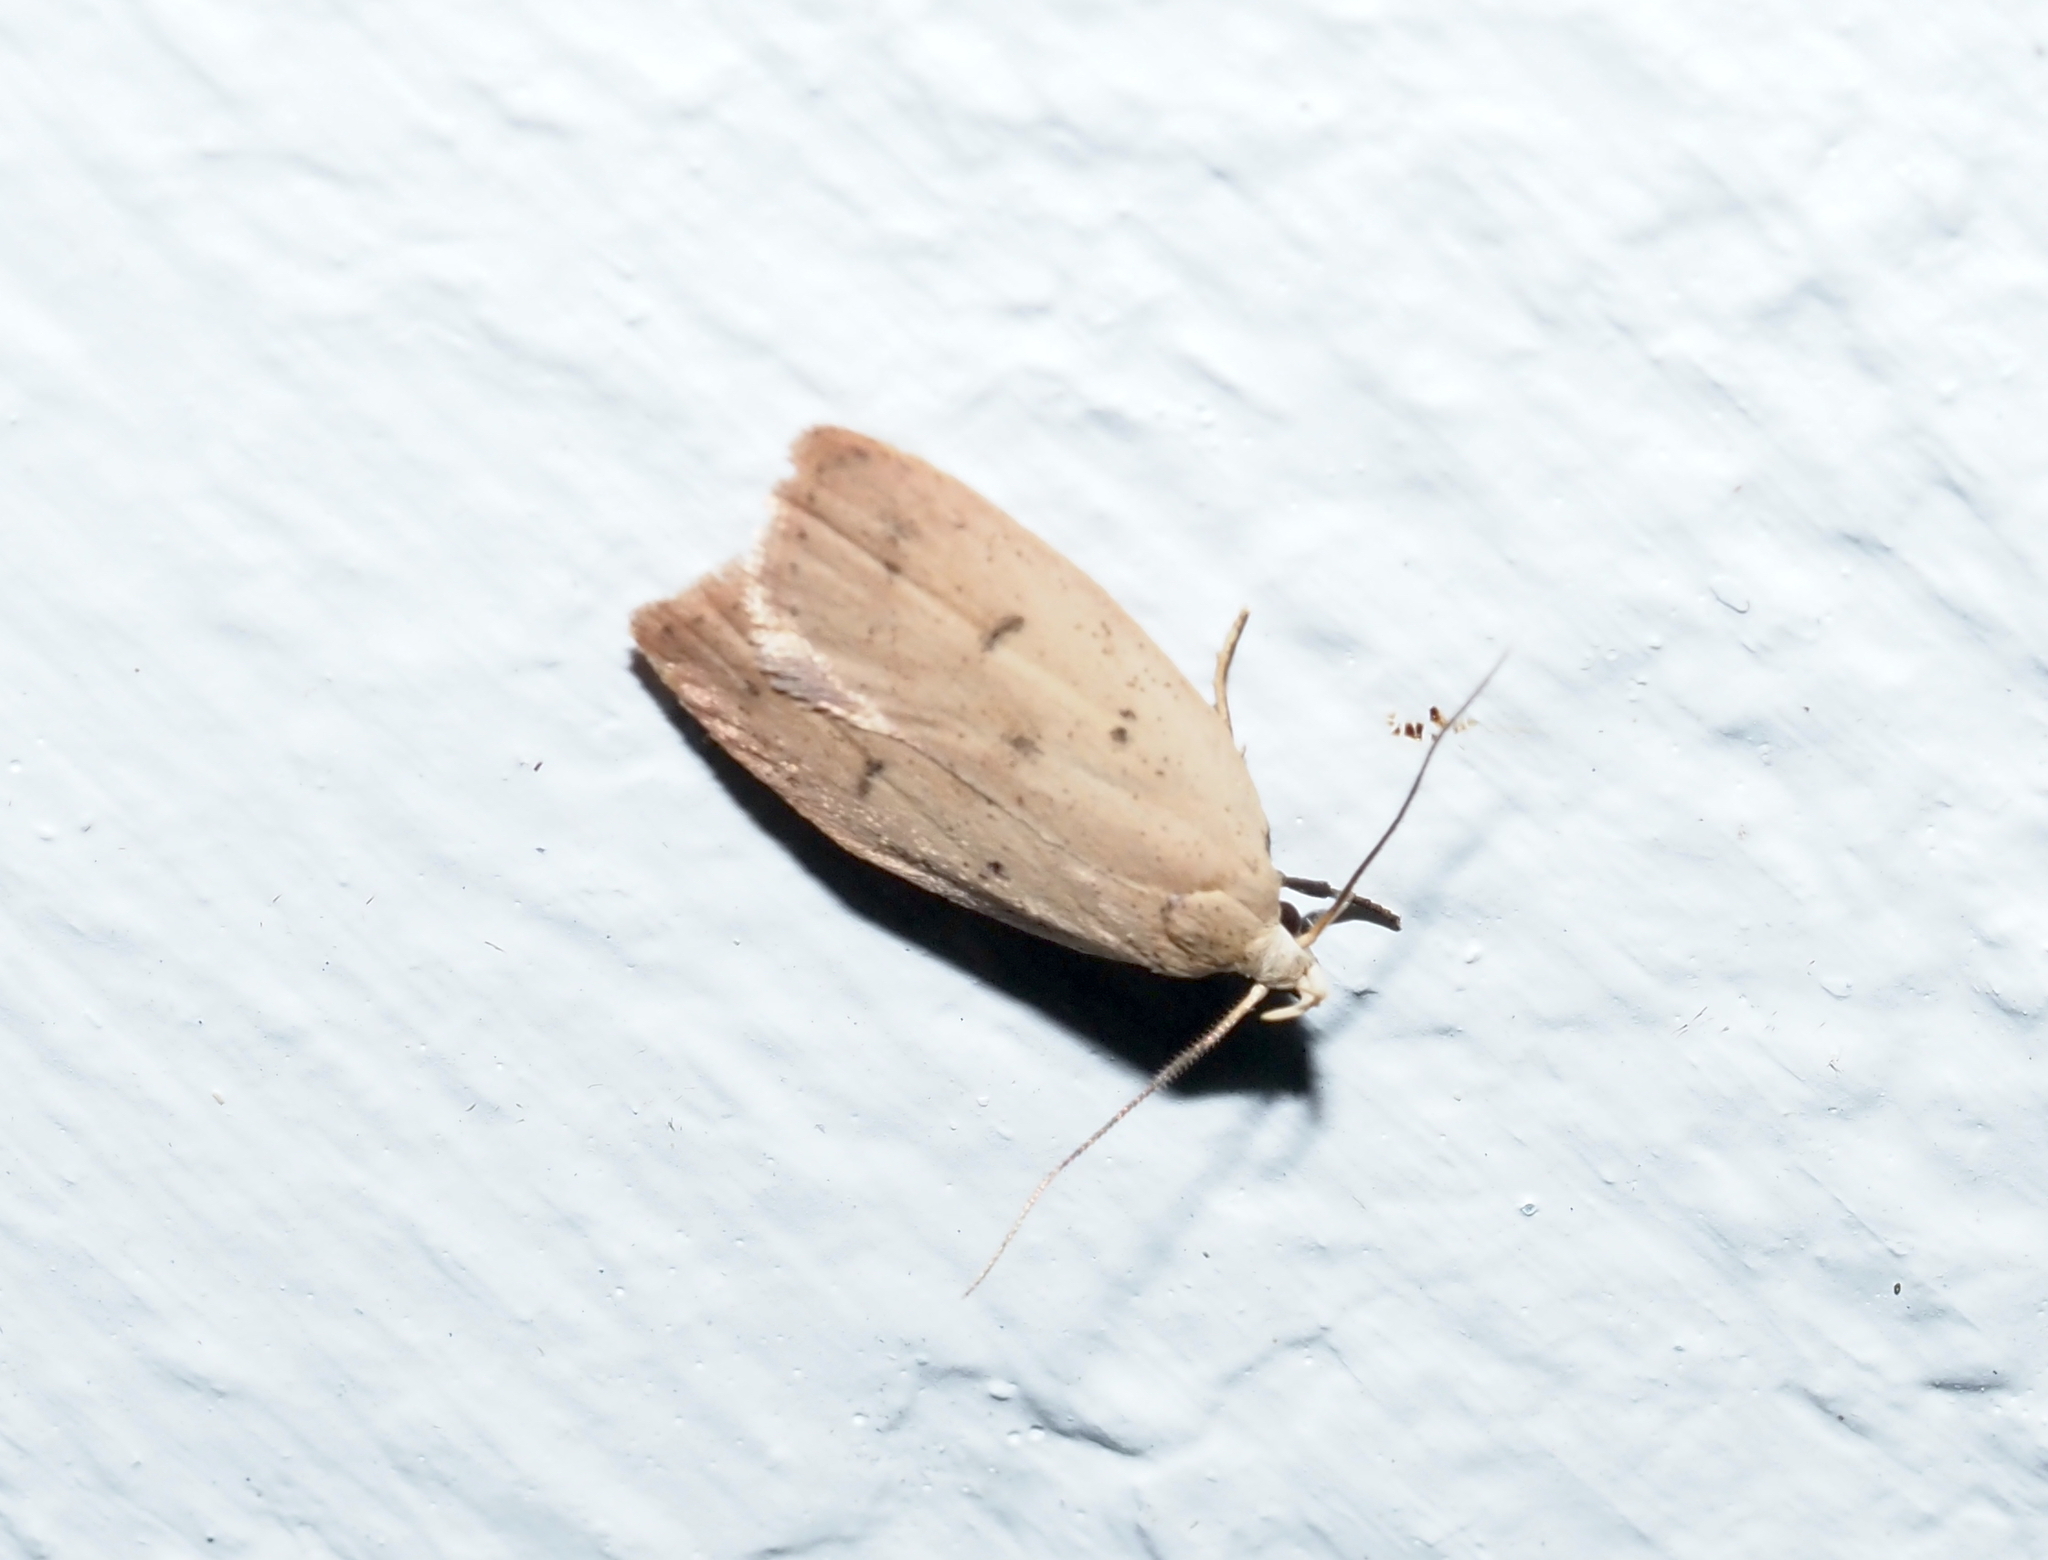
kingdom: Animalia
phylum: Arthropoda
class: Insecta
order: Lepidoptera
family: Peleopodidae
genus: Machimia
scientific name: Machimia tentoriferella
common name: Gold-striped leaftier moth
